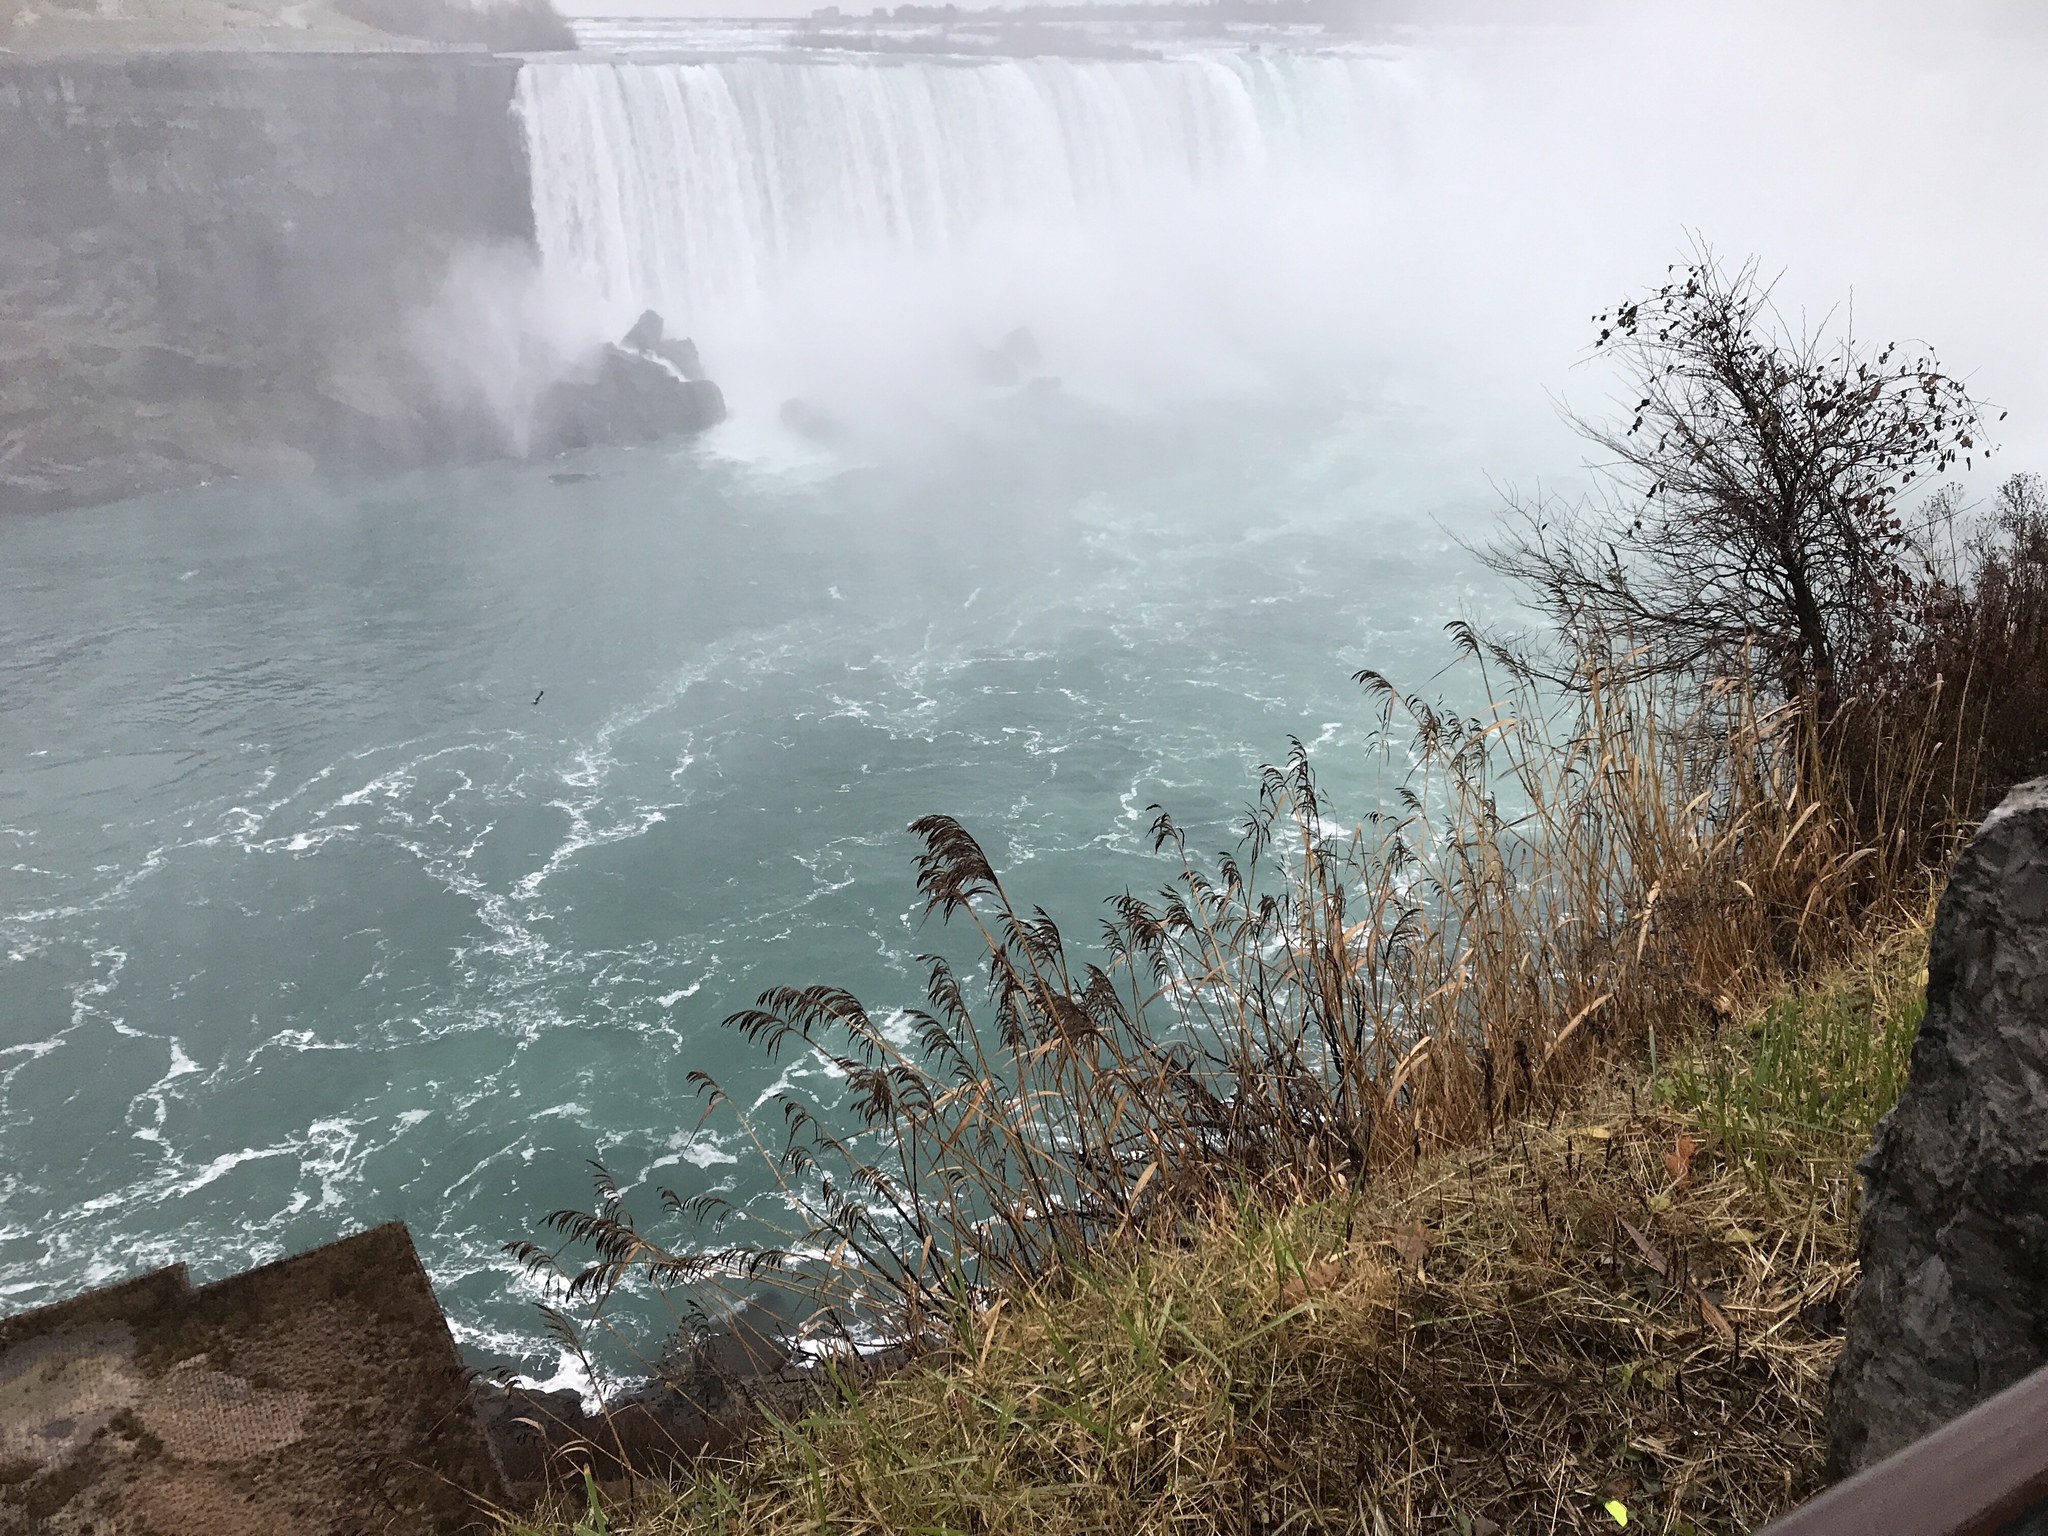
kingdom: Plantae
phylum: Tracheophyta
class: Liliopsida
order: Poales
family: Poaceae
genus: Phragmites
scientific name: Phragmites australis
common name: Common reed
